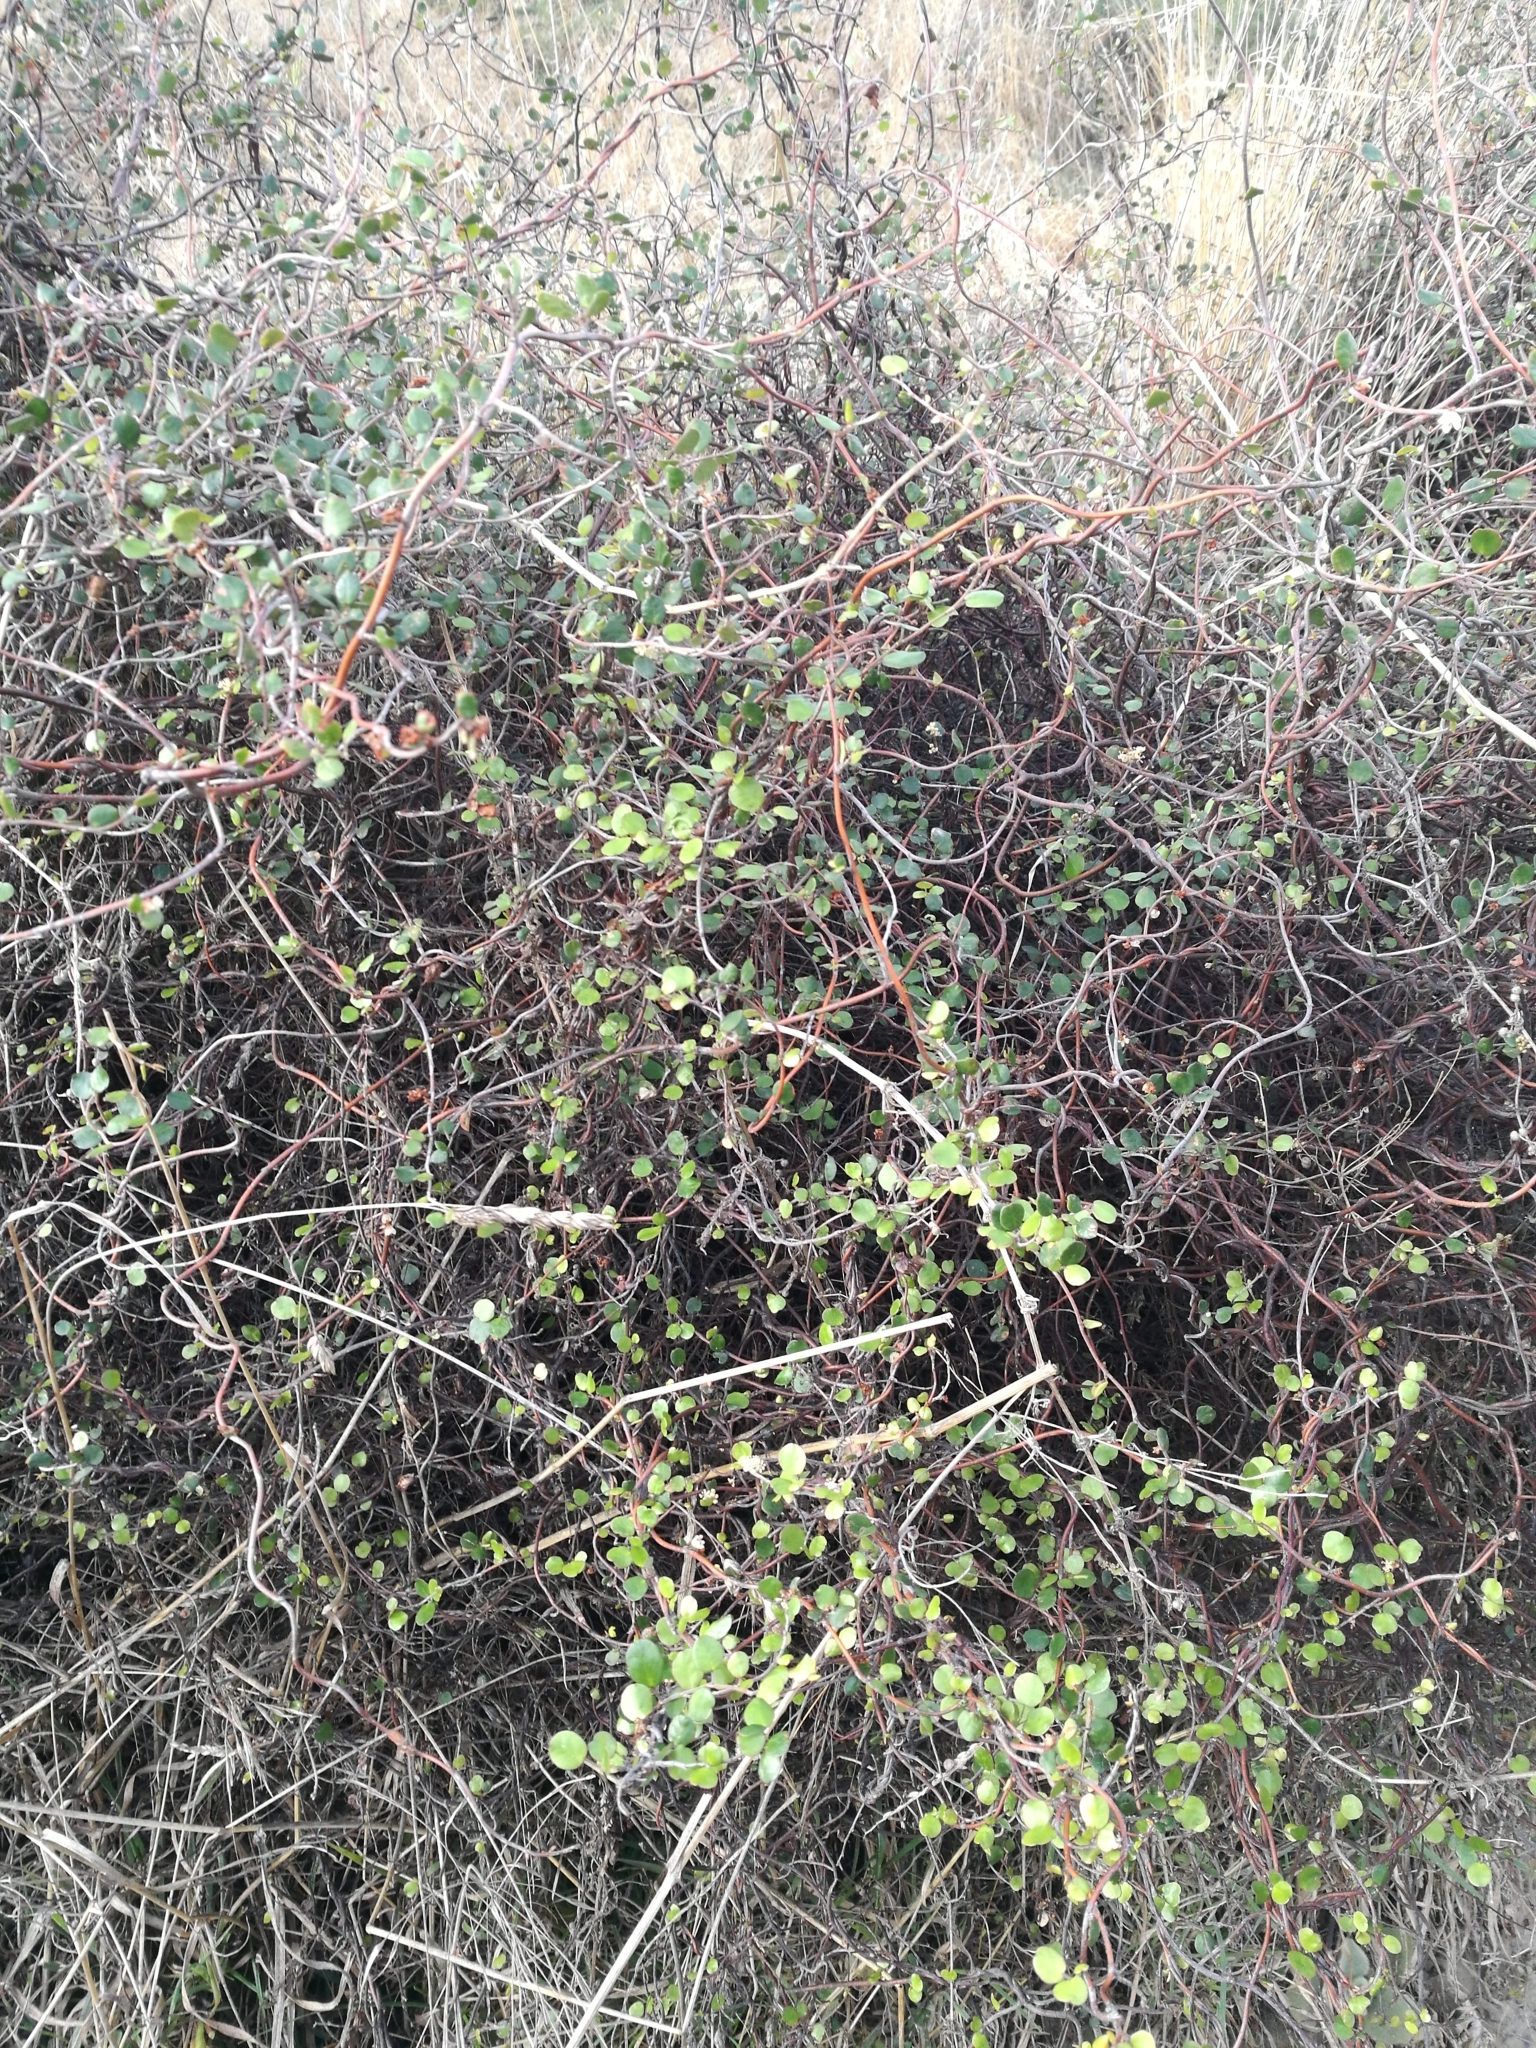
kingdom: Plantae
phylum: Tracheophyta
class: Magnoliopsida
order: Caryophyllales
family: Polygonaceae
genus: Muehlenbeckia
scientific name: Muehlenbeckia complexa
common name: Wireplant
